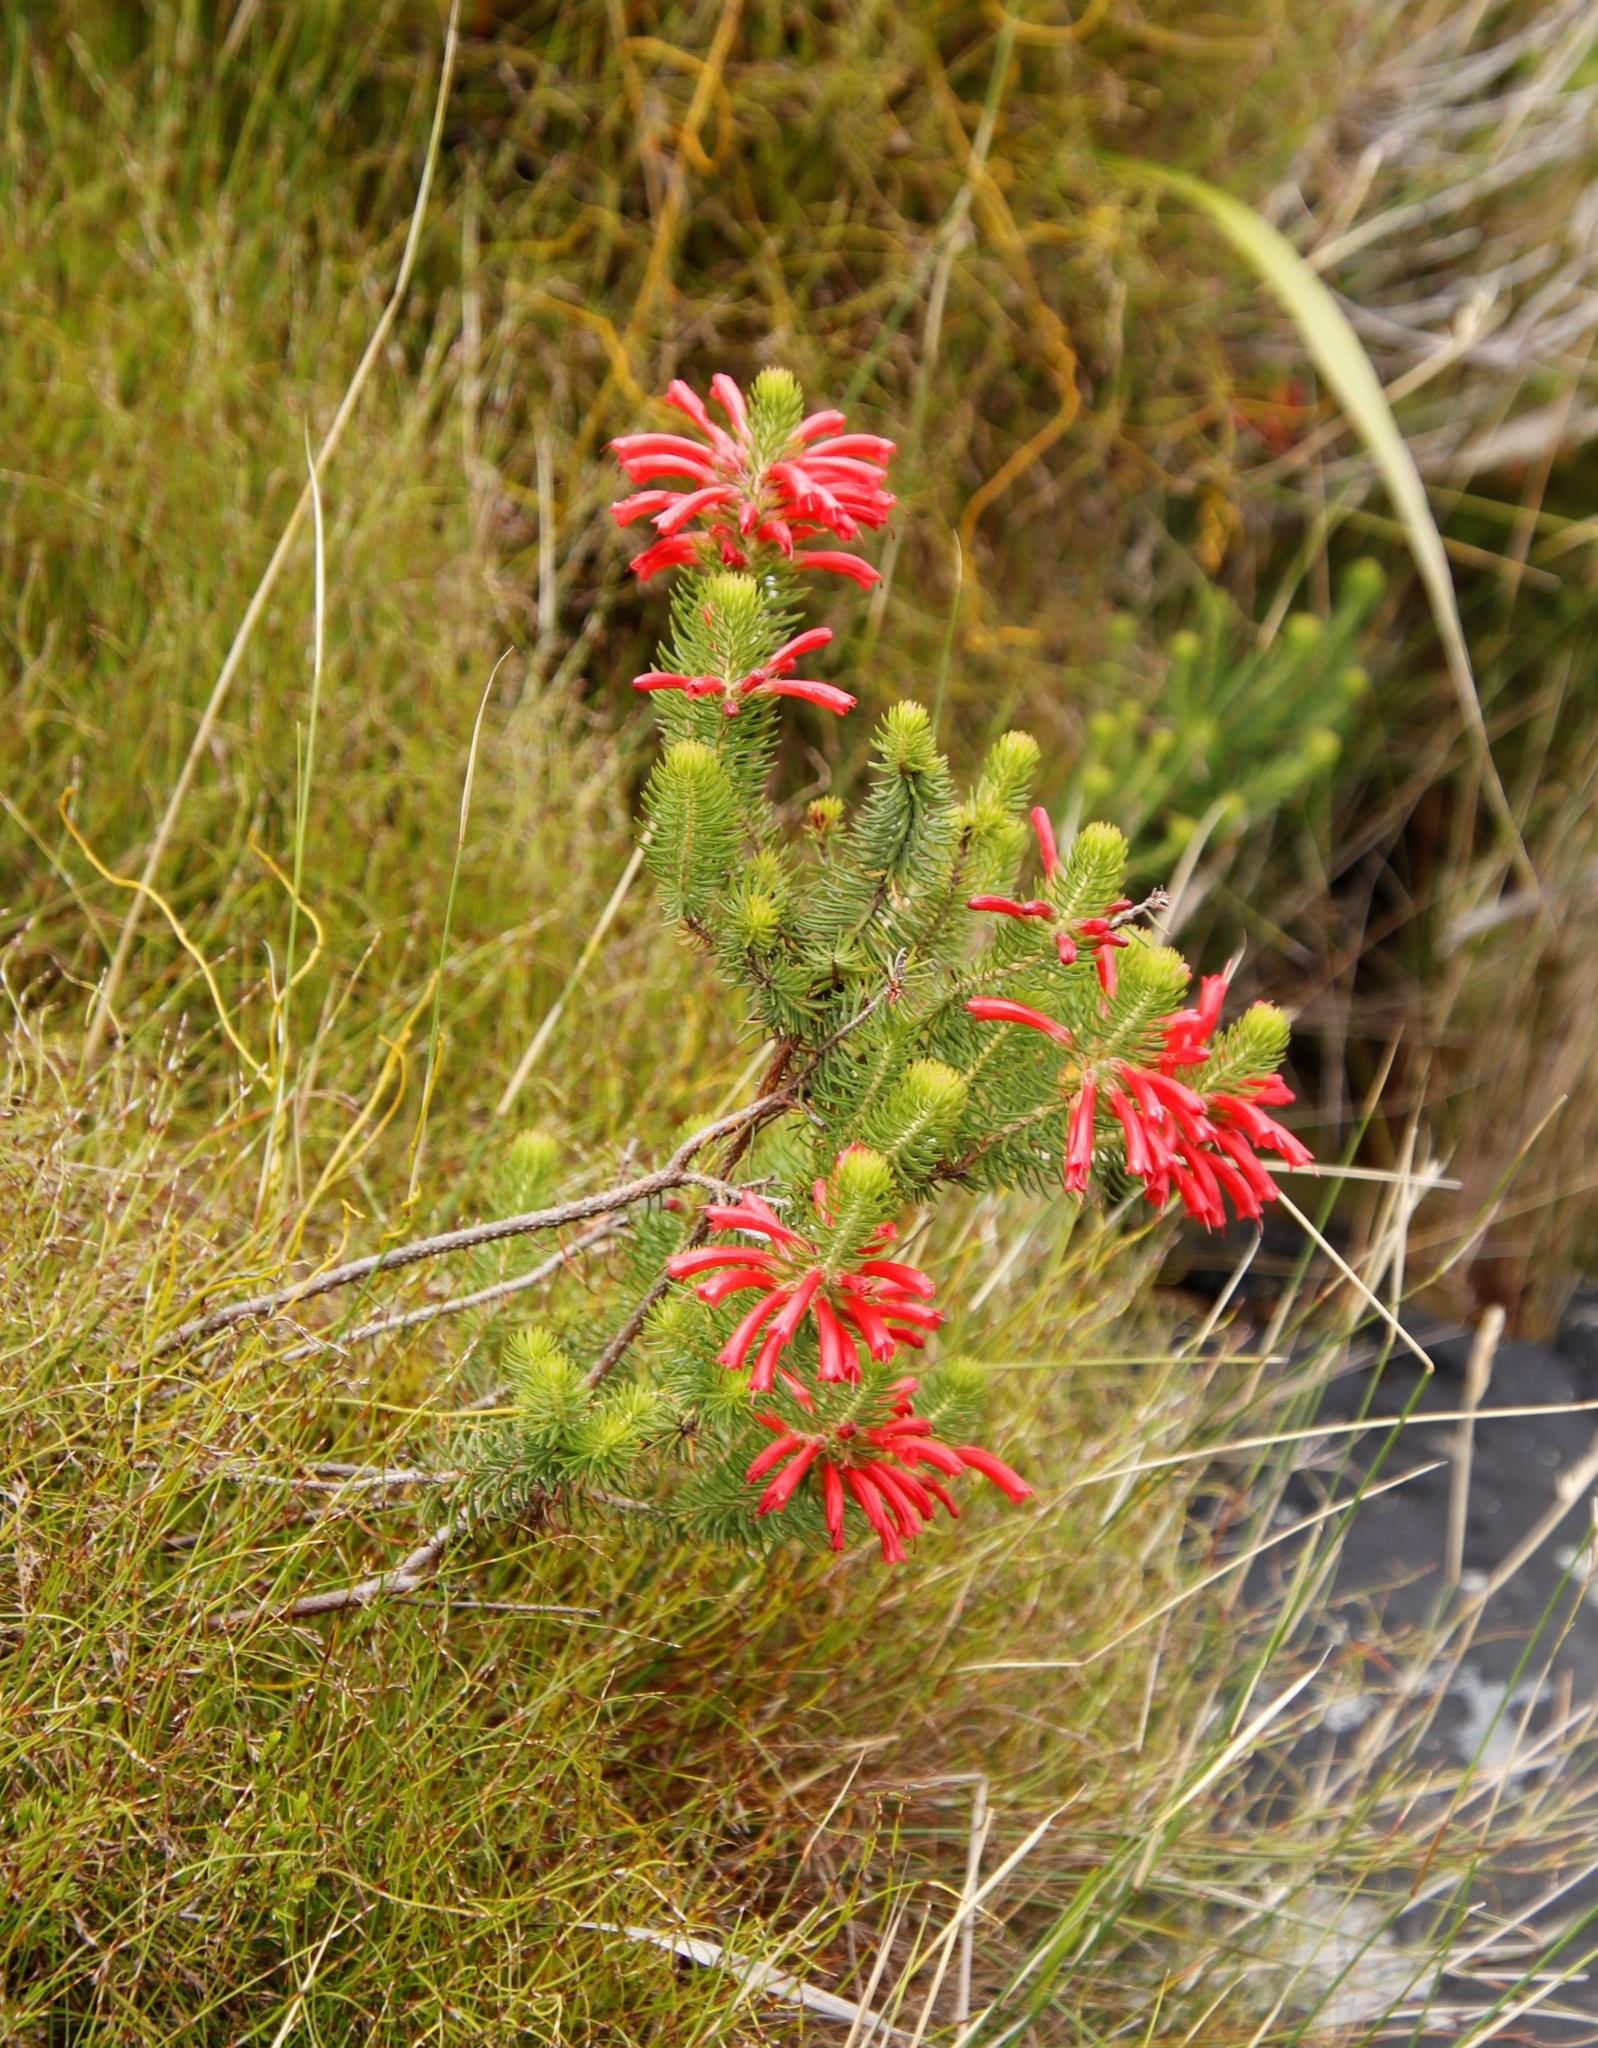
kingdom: Plantae
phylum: Tracheophyta
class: Magnoliopsida
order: Ericales
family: Ericaceae
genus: Erica
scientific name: Erica abietina
